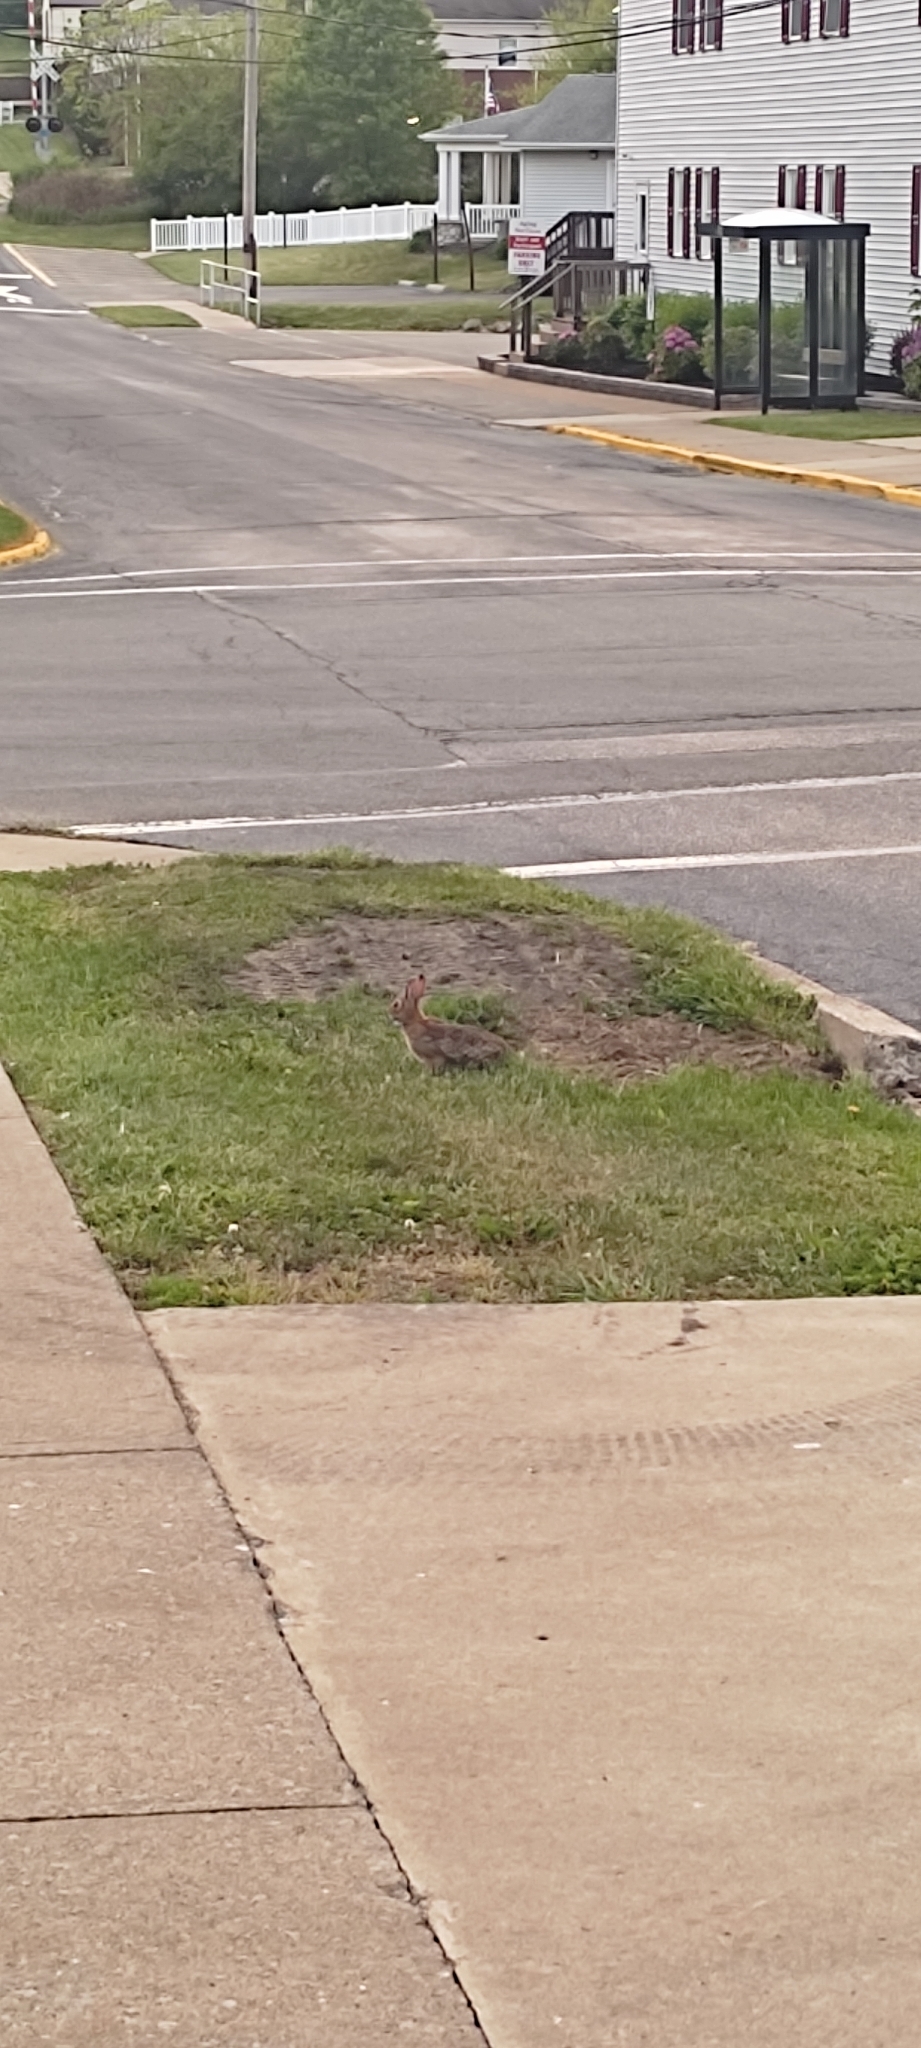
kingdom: Animalia
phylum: Chordata
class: Mammalia
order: Lagomorpha
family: Leporidae
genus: Sylvilagus
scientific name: Sylvilagus floridanus
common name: Eastern cottontail
